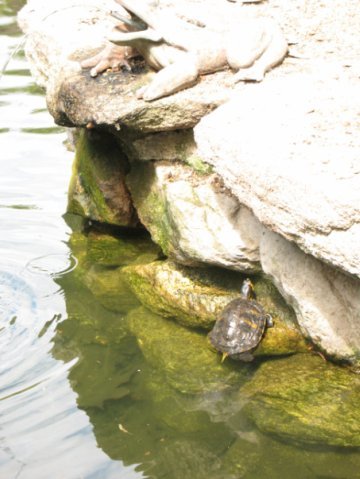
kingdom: Animalia
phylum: Chordata
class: Testudines
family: Emydidae
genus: Trachemys
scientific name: Trachemys scripta
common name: Slider
